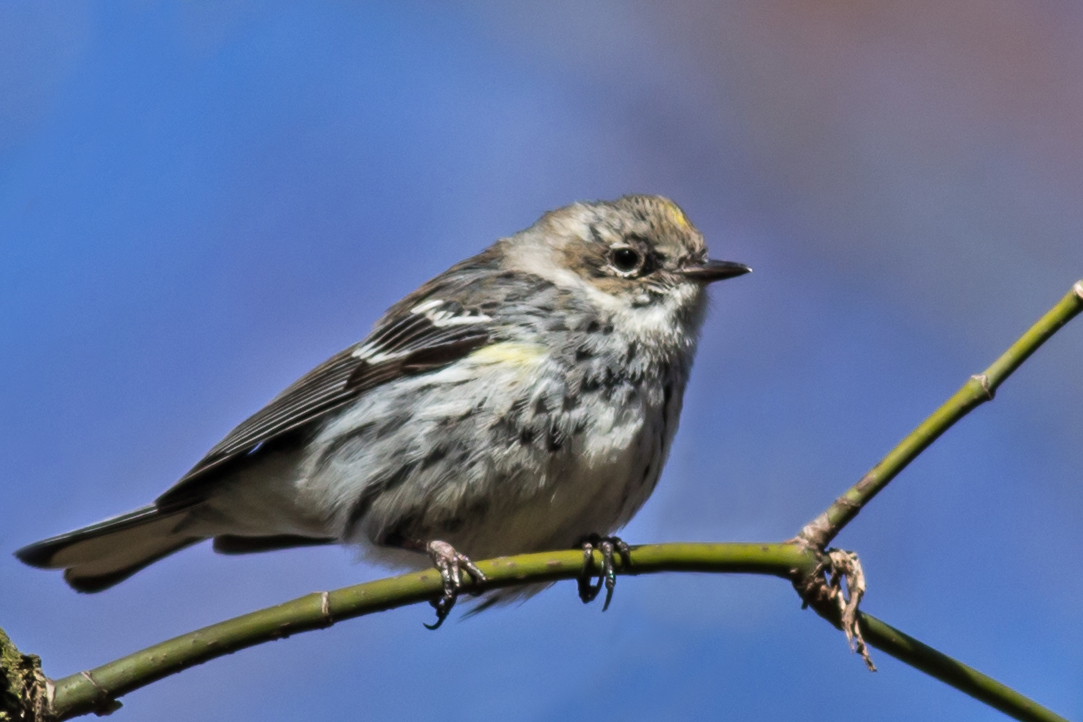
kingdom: Animalia
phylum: Chordata
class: Aves
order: Passeriformes
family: Parulidae
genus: Setophaga
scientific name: Setophaga coronata
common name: Myrtle warbler
